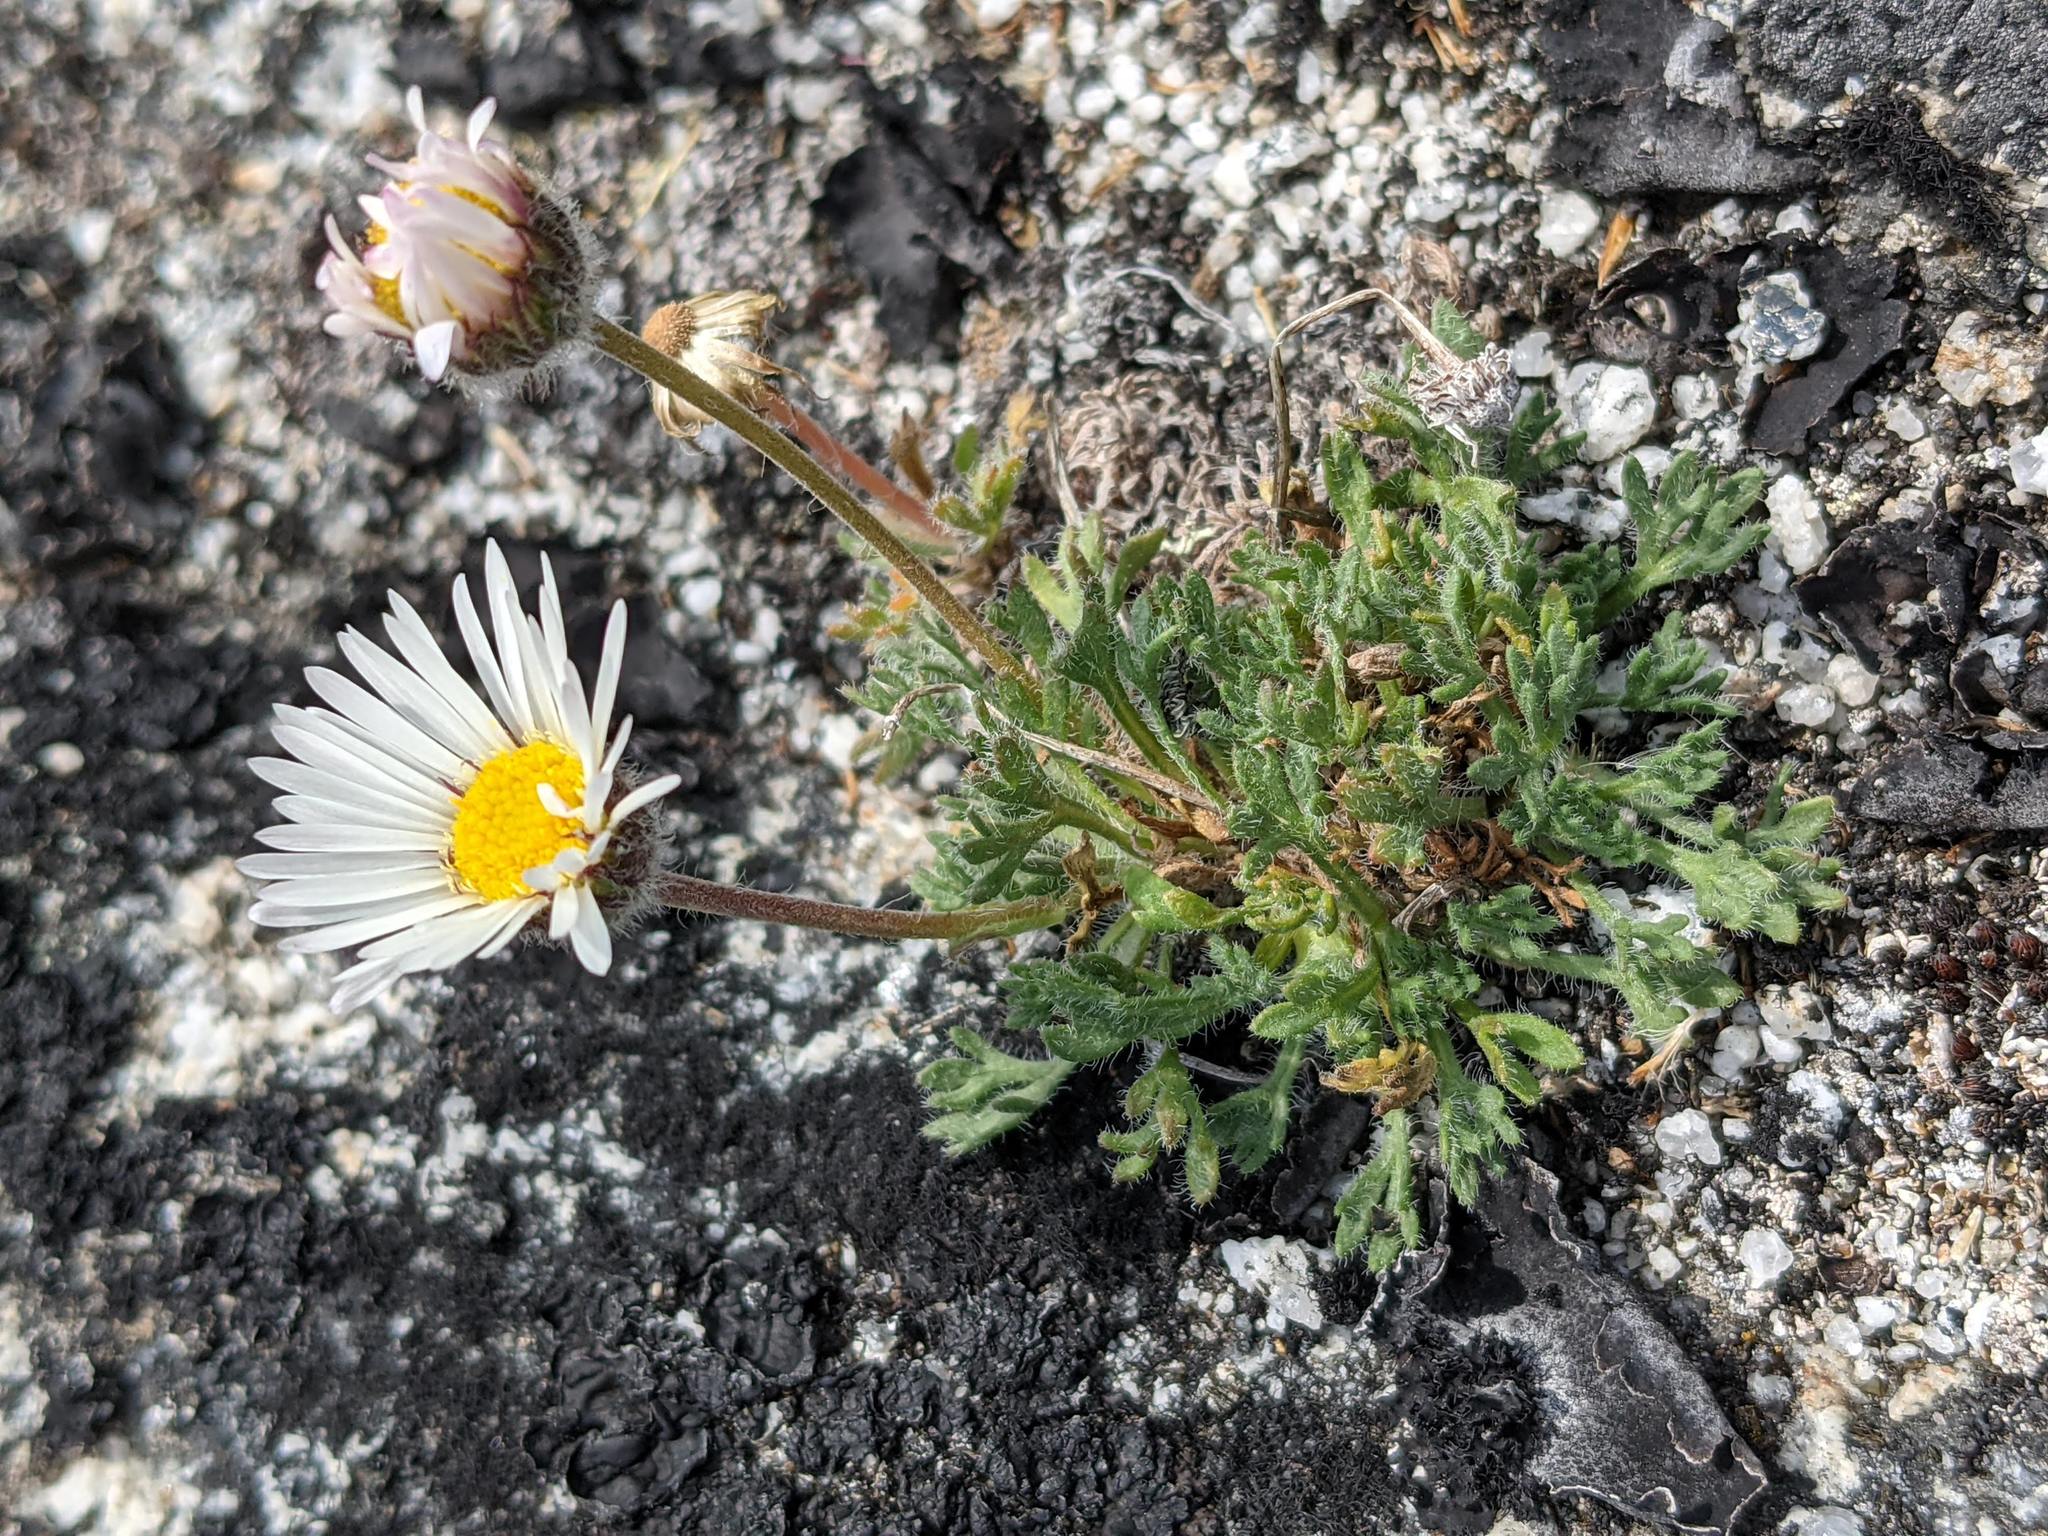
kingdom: Plantae
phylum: Tracheophyta
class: Magnoliopsida
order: Asterales
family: Asteraceae
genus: Erigeron
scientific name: Erigeron compositus
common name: Dwarf mountain fleabane
